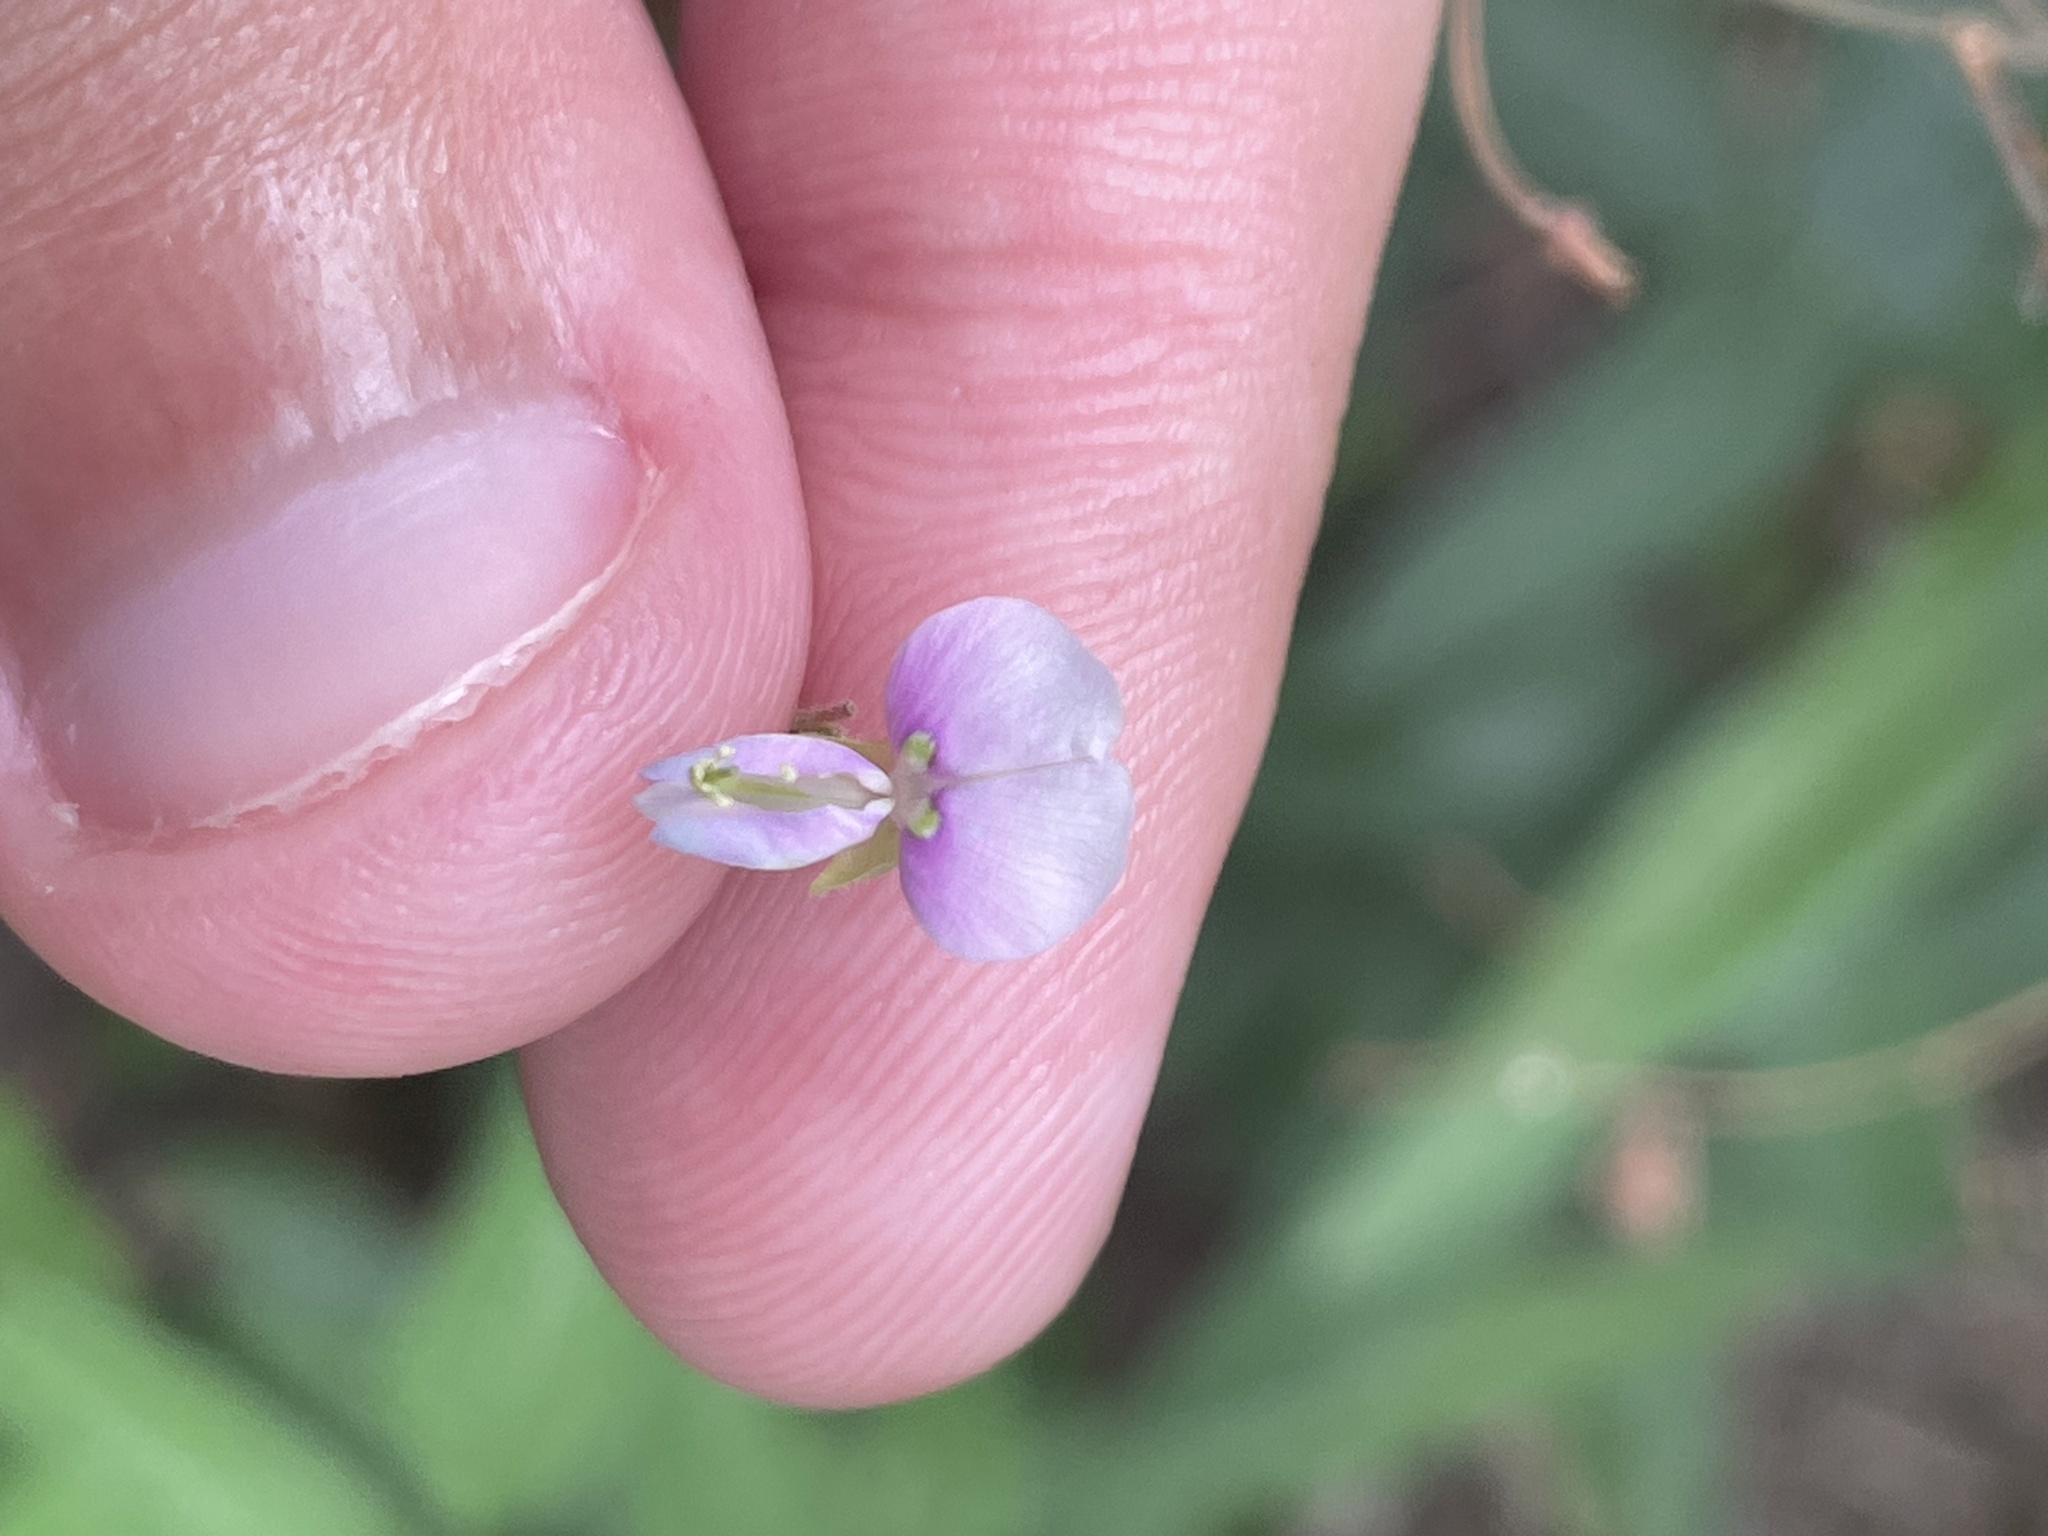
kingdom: Plantae
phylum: Tracheophyta
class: Magnoliopsida
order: Fabales
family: Fabaceae
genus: Desmodium
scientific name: Desmodium paniculatum
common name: Panicled tick-clover
